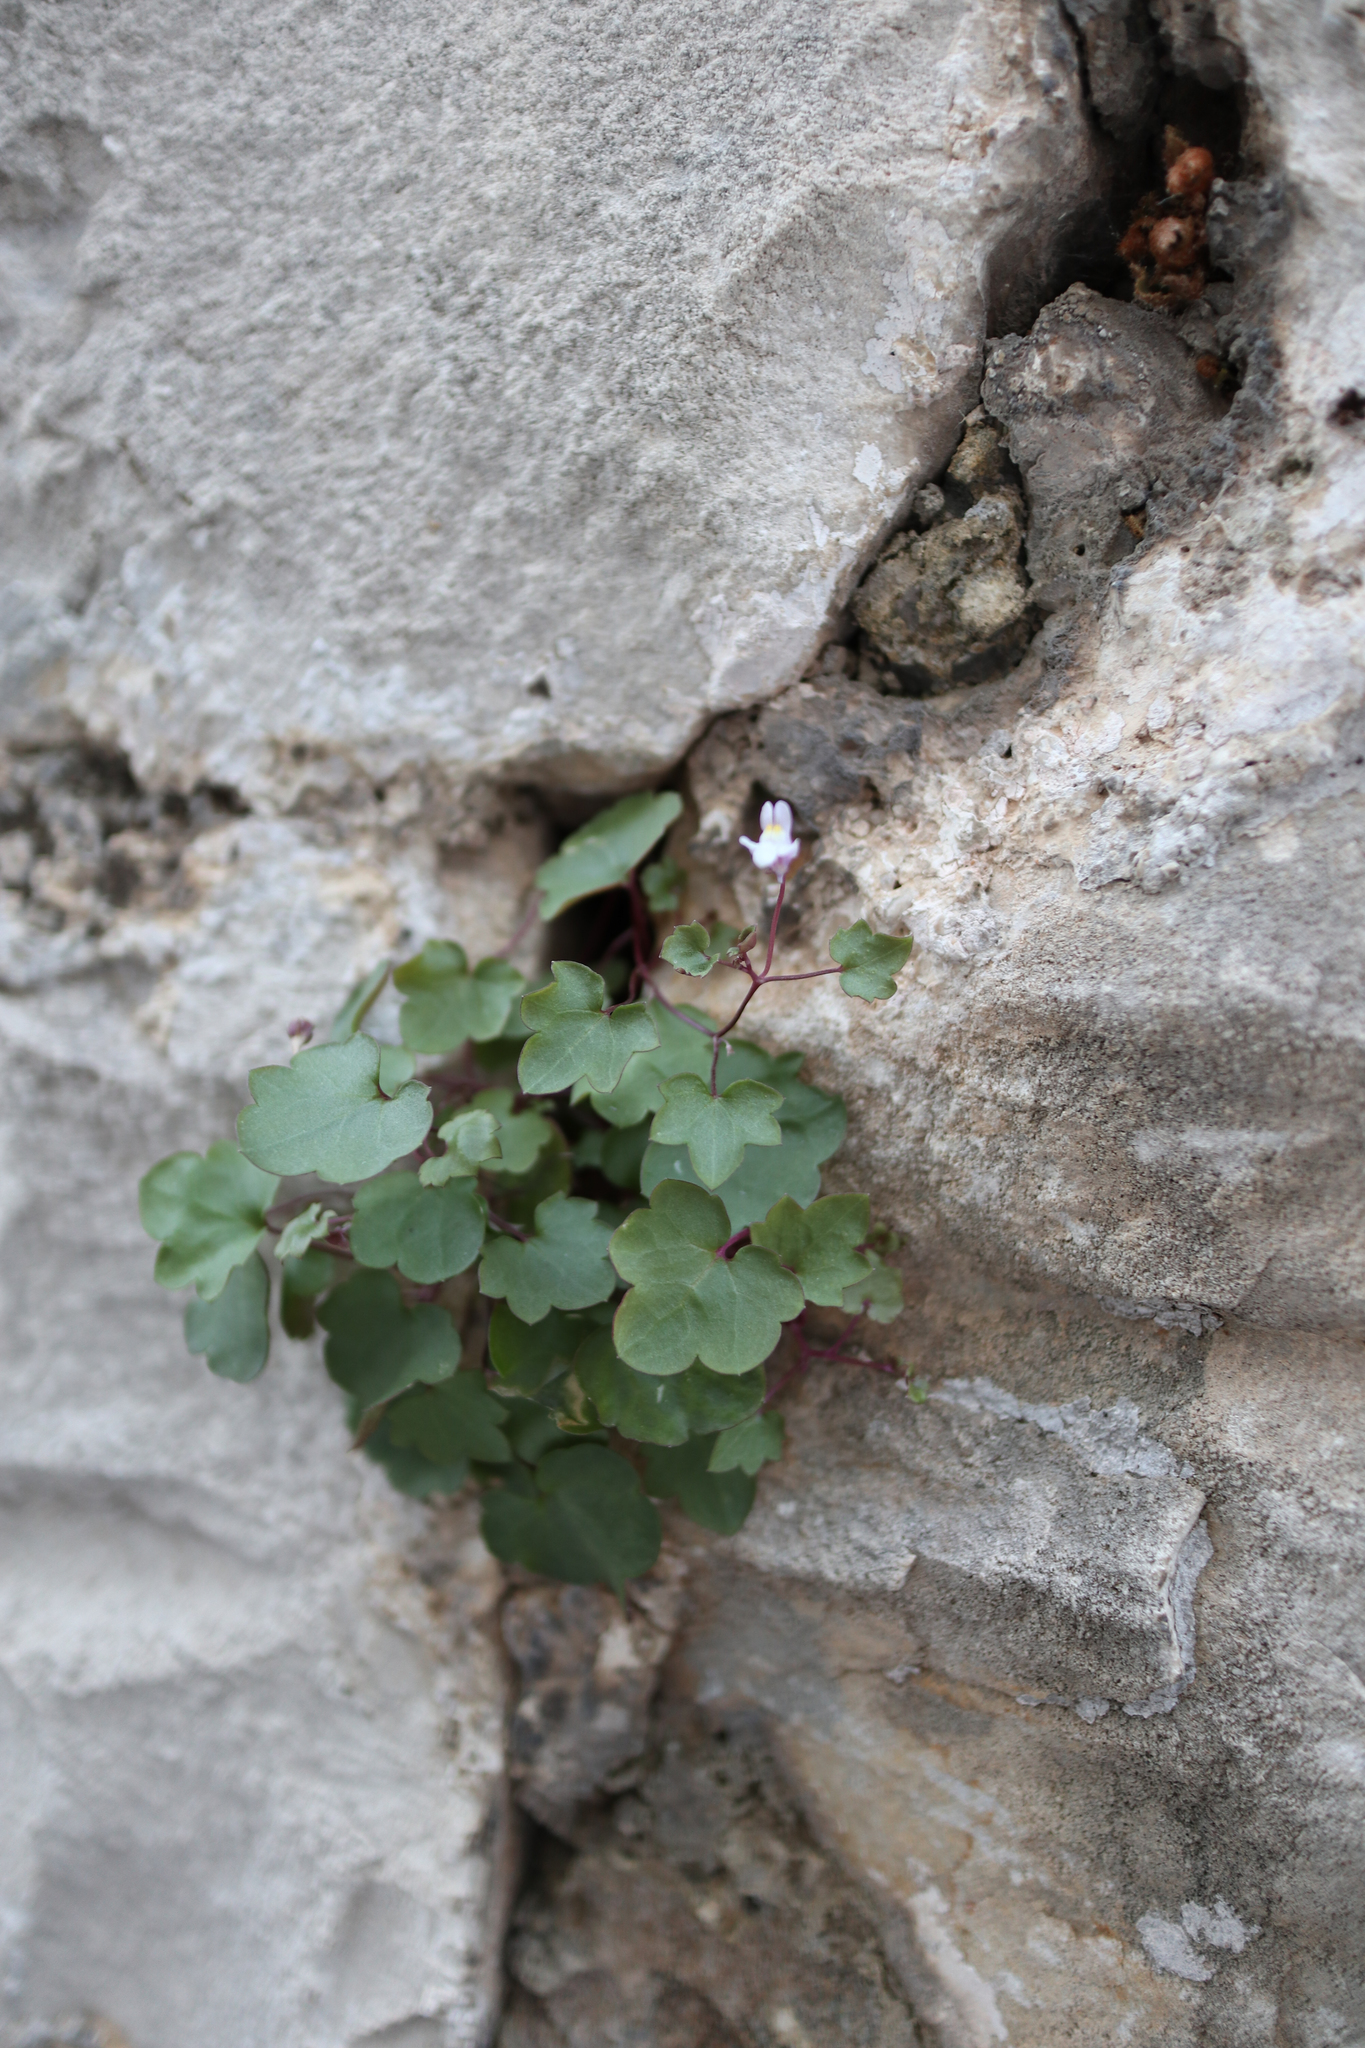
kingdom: Plantae
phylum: Tracheophyta
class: Magnoliopsida
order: Lamiales
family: Plantaginaceae
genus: Cymbalaria
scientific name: Cymbalaria muralis
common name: Ivy-leaved toadflax
